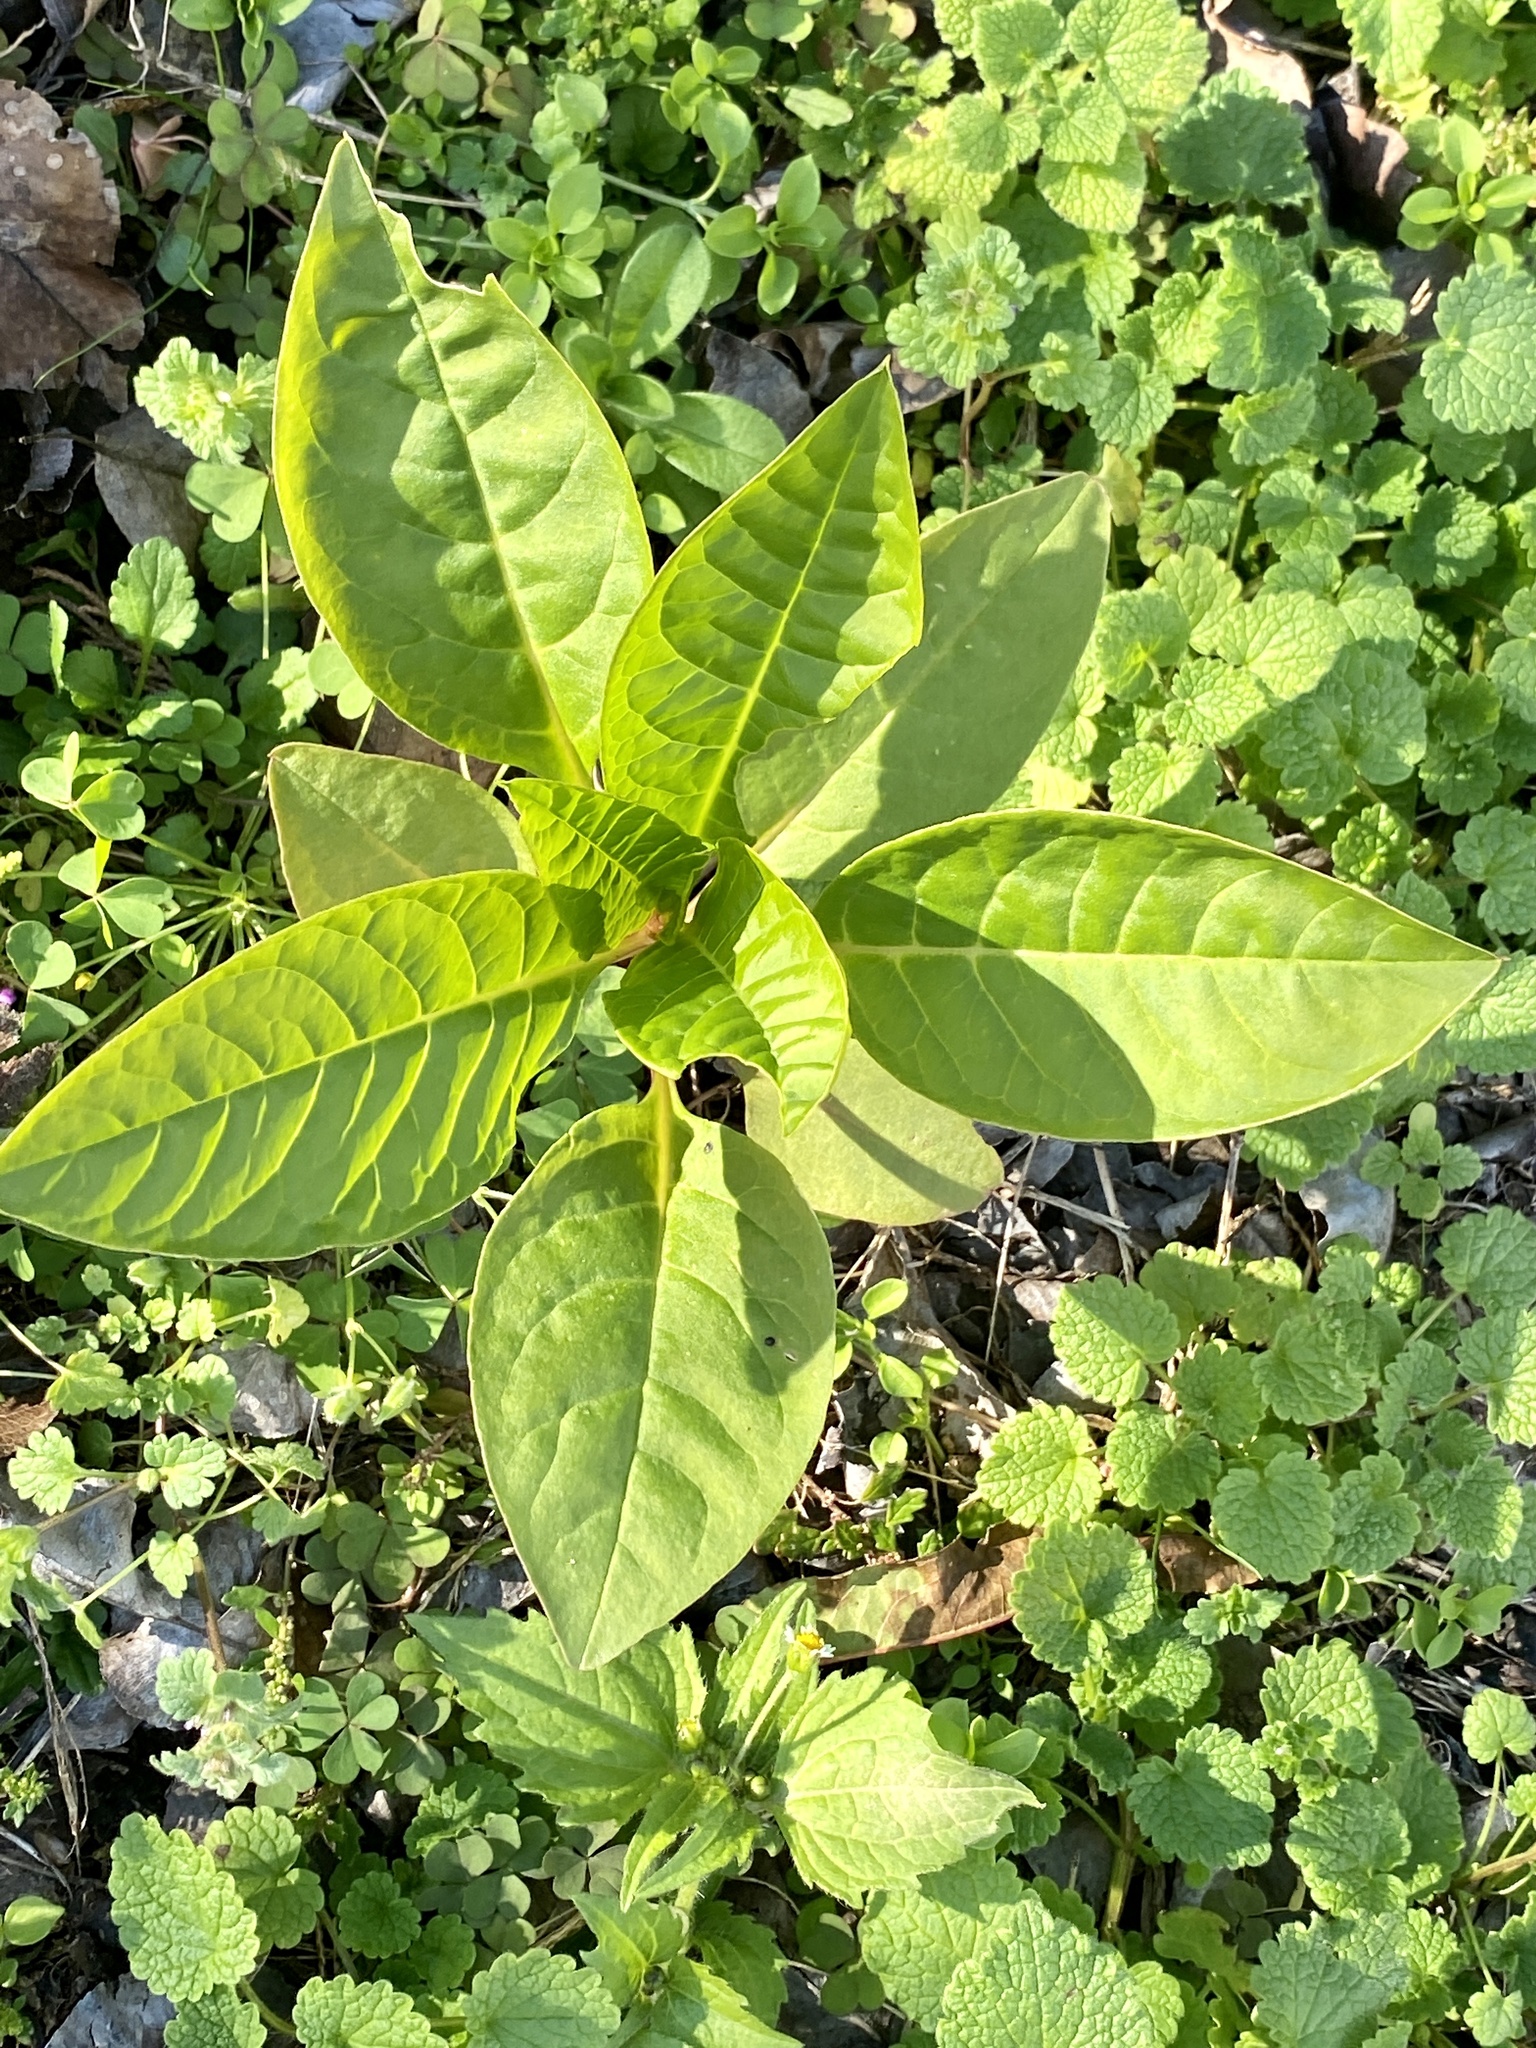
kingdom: Plantae
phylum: Tracheophyta
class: Magnoliopsida
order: Caryophyllales
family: Phytolaccaceae
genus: Phytolacca
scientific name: Phytolacca americana
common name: American pokeweed
